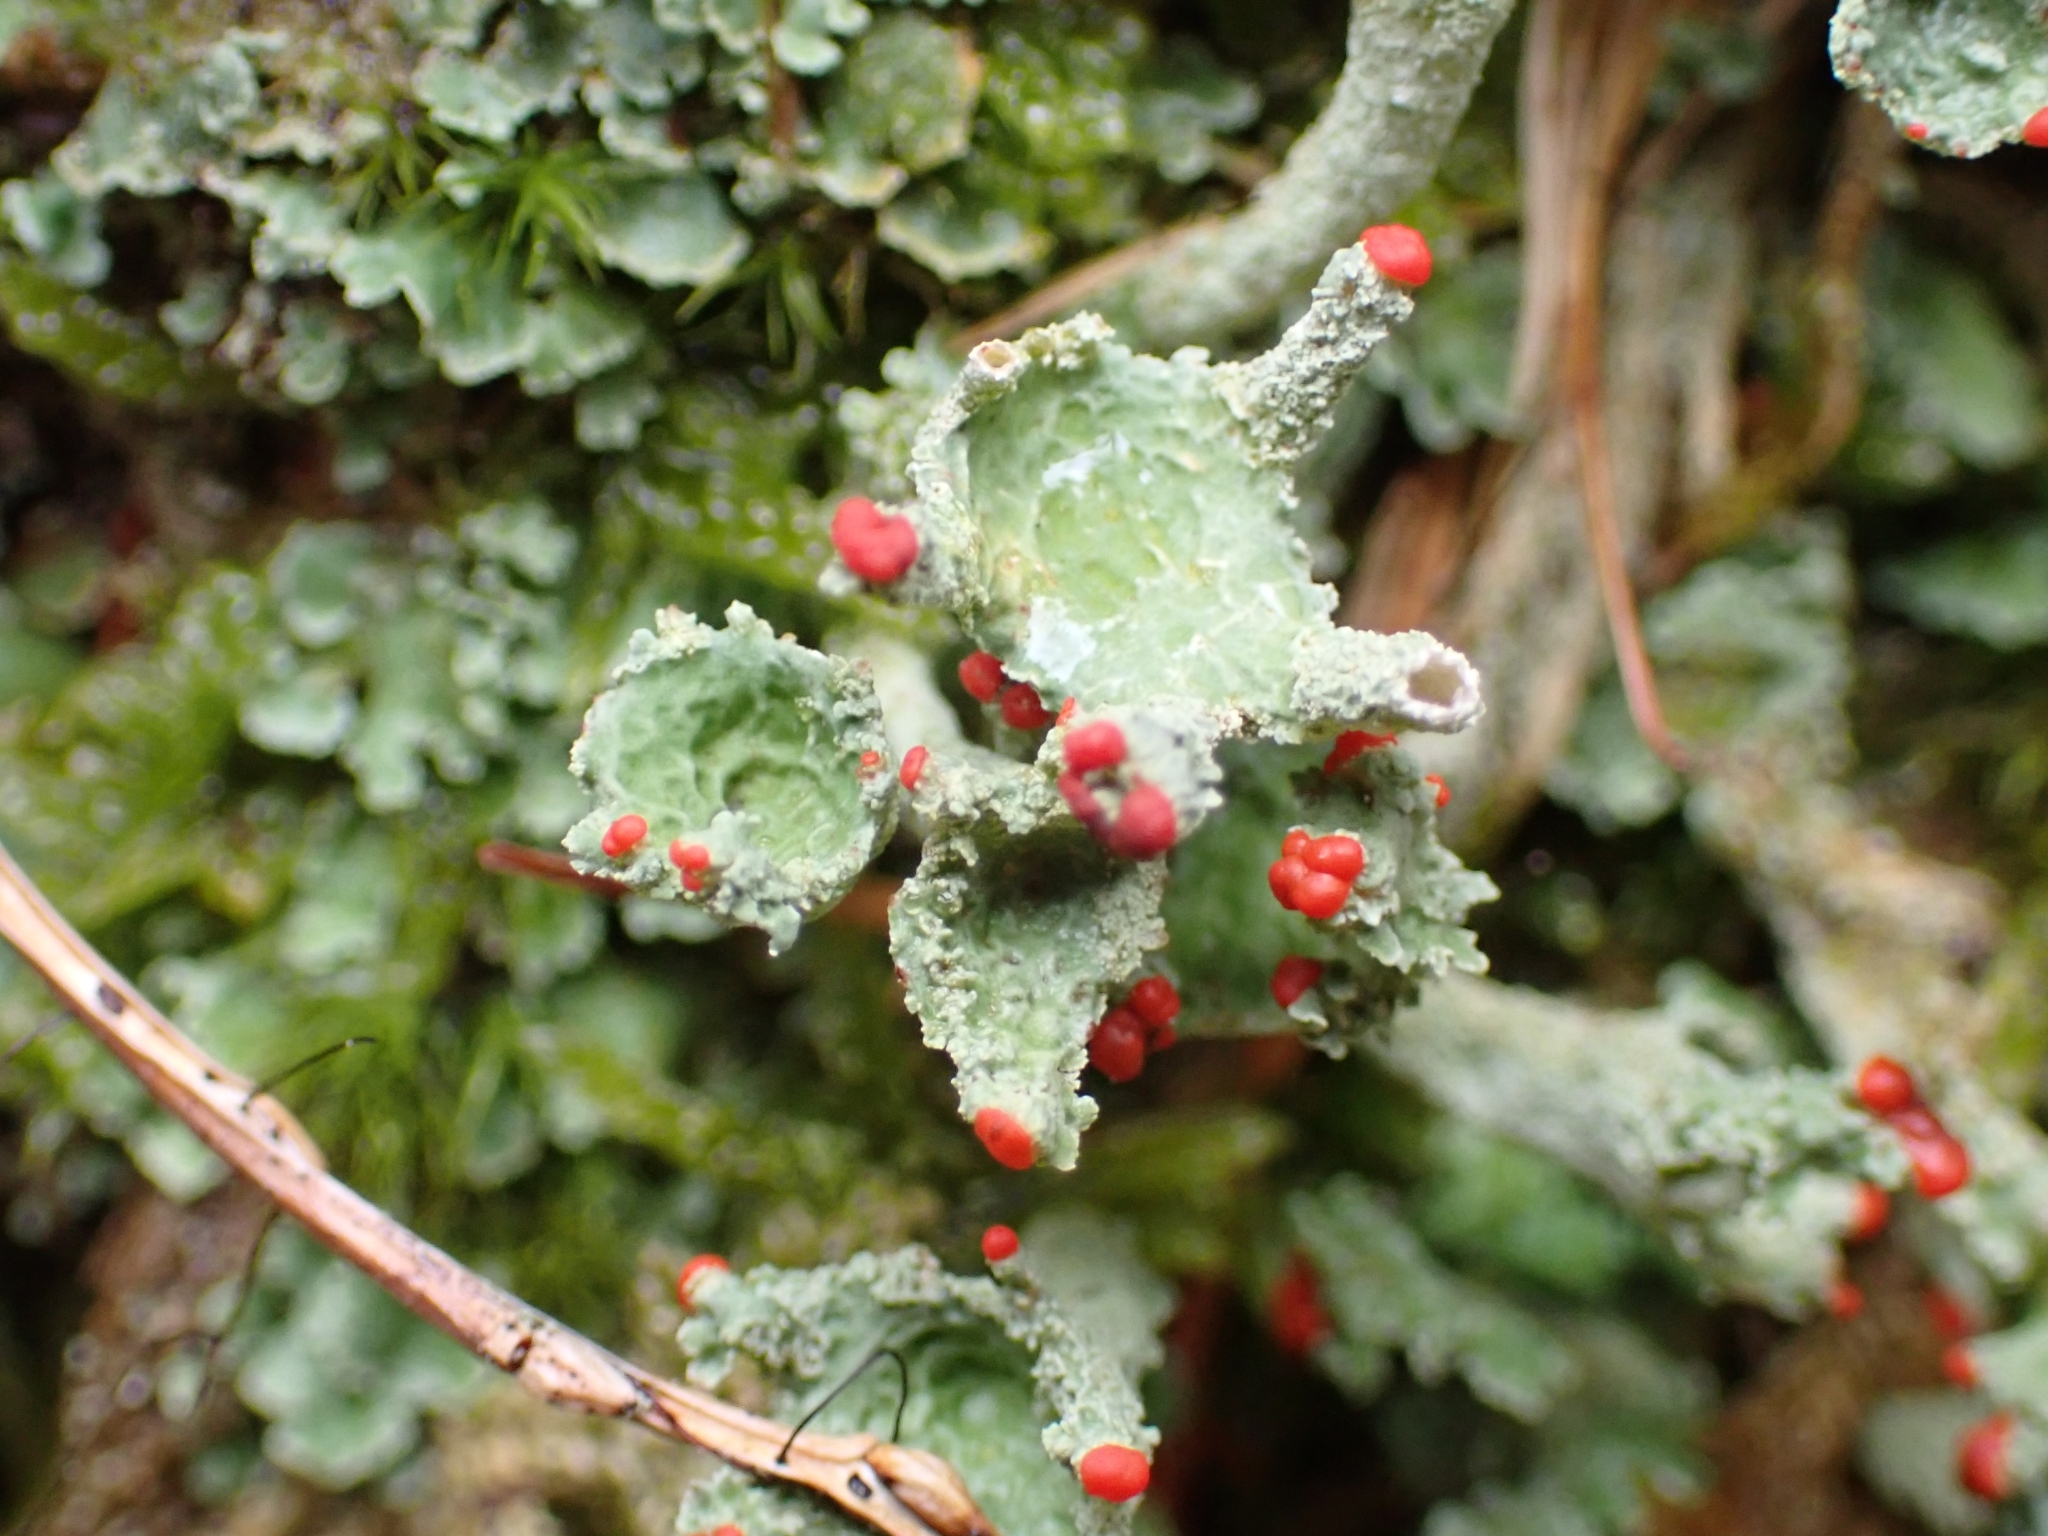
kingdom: Fungi
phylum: Ascomycota
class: Lecanoromycetes
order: Lecanorales
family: Cladoniaceae
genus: Cladonia
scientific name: Cladonia digitata
